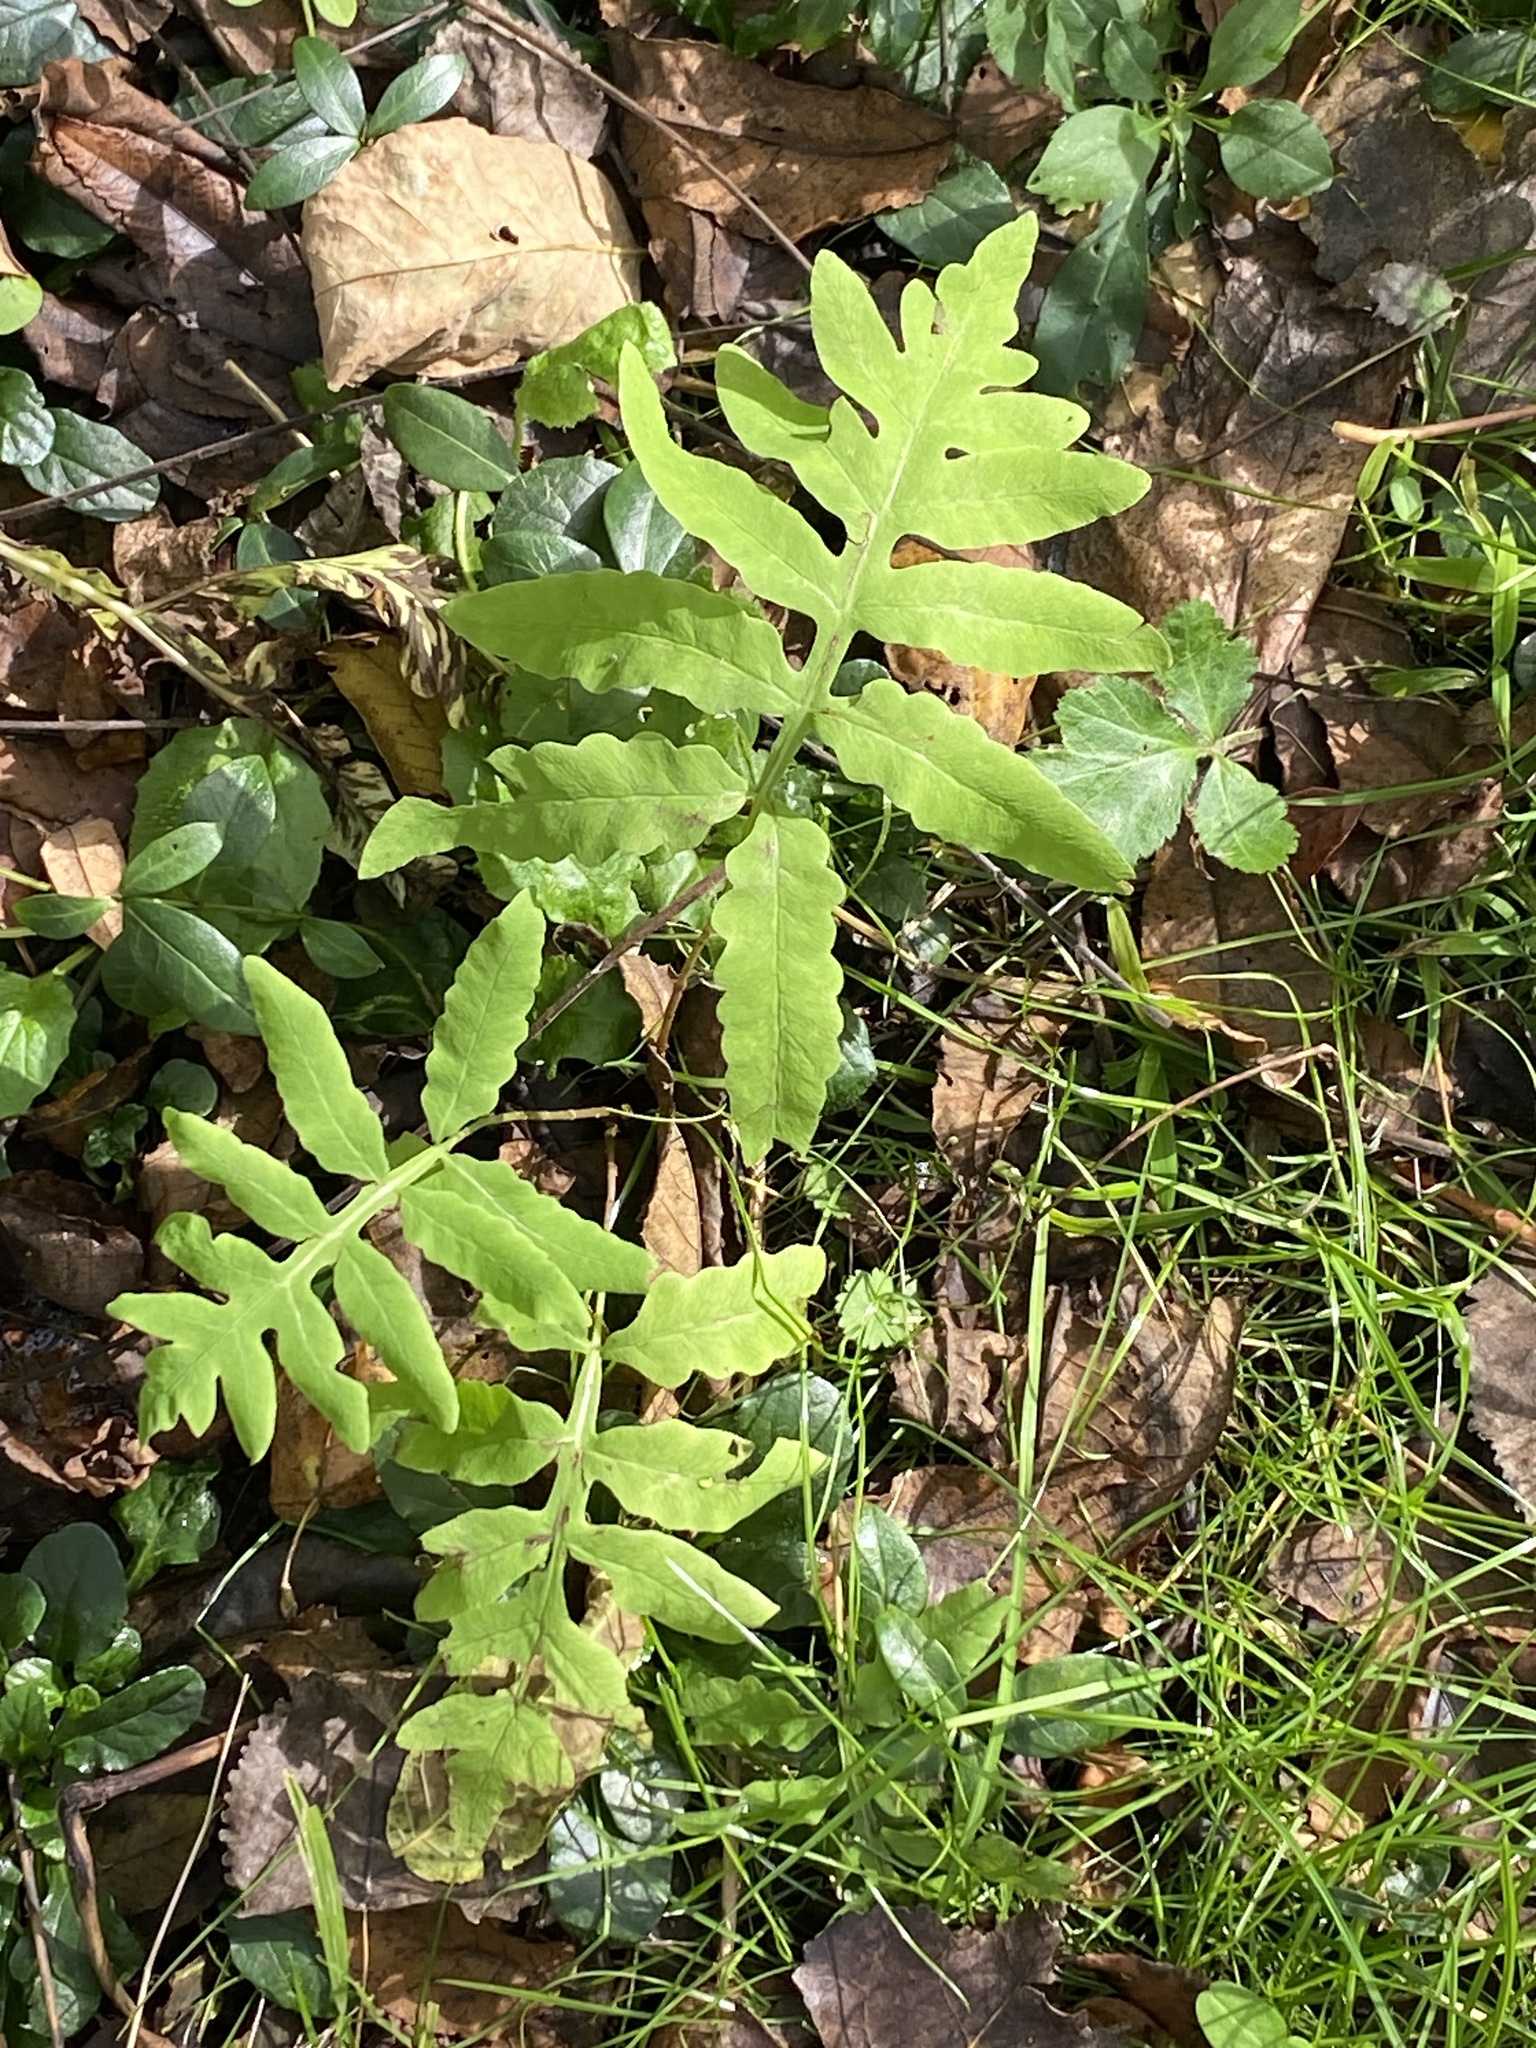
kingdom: Plantae
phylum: Tracheophyta
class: Polypodiopsida
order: Polypodiales
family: Onocleaceae
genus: Onoclea
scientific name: Onoclea sensibilis
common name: Sensitive fern
